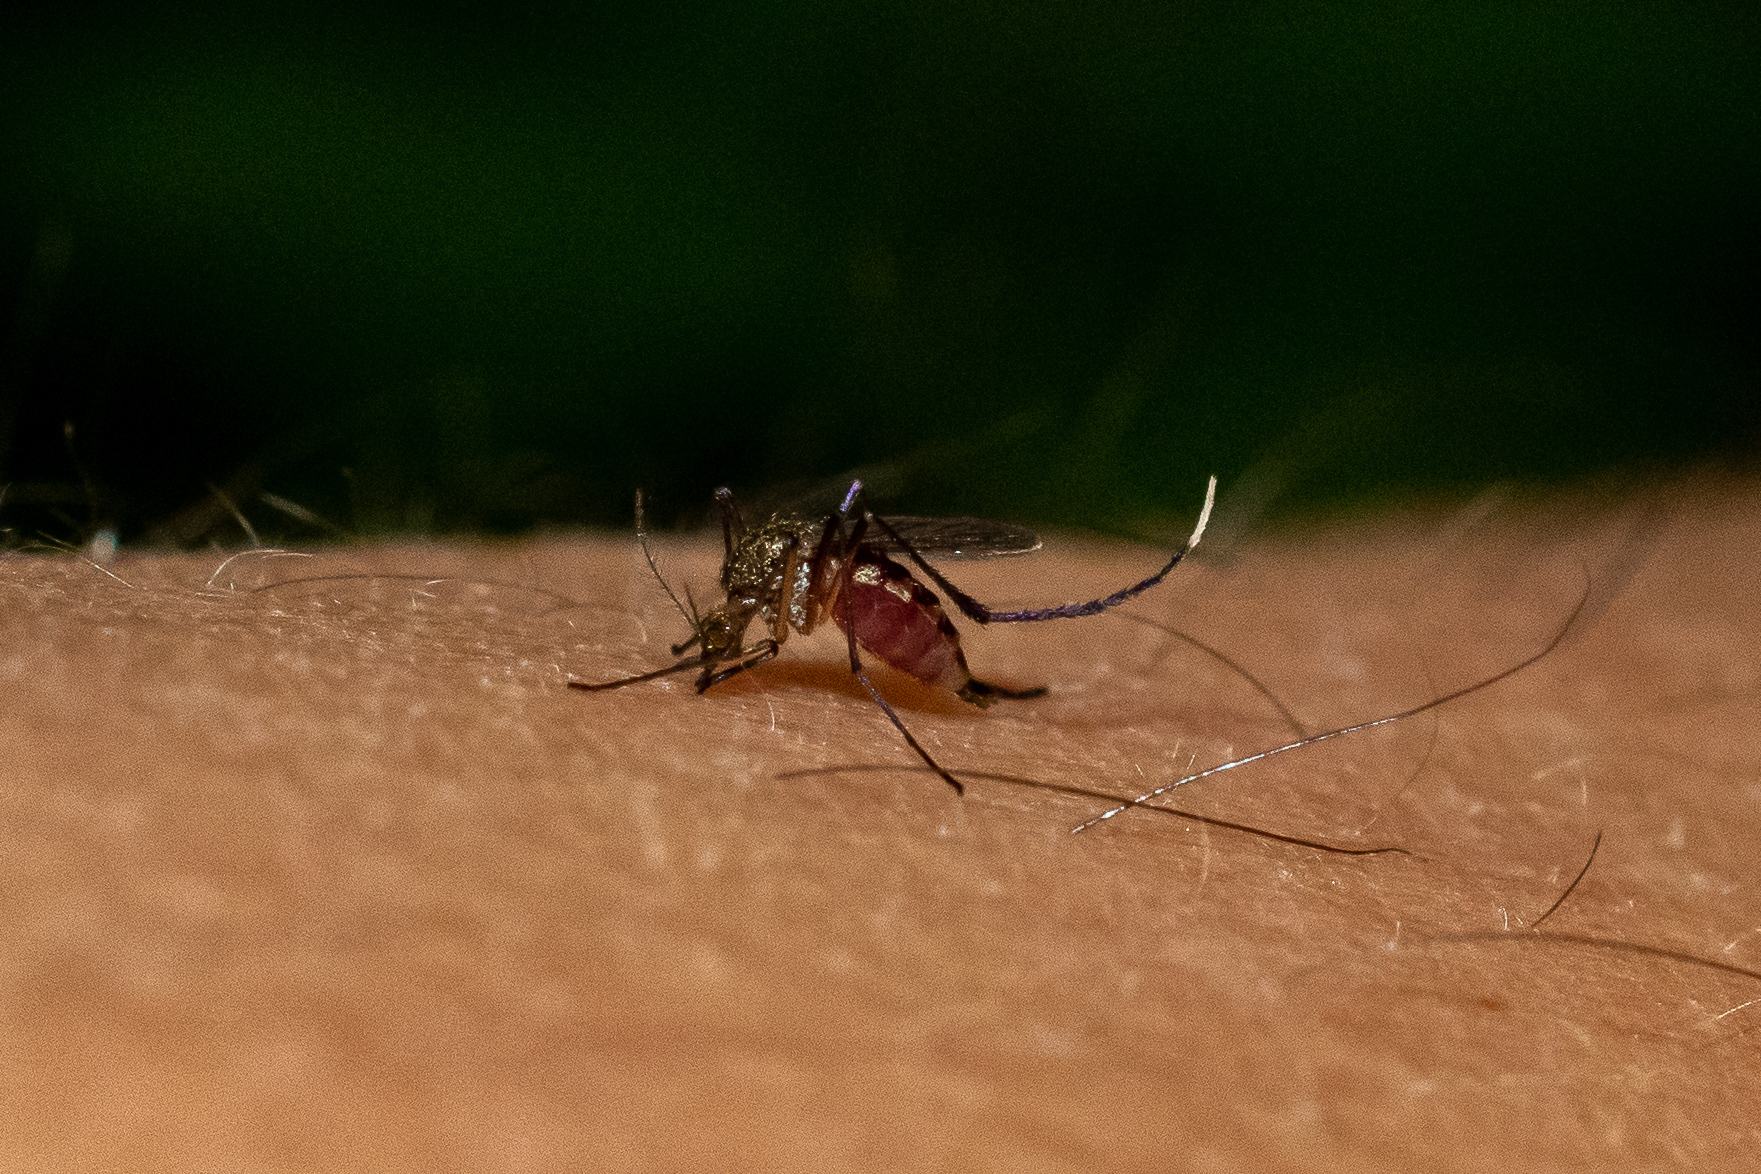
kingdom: Animalia
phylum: Arthropoda
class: Insecta
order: Diptera
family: Culicidae
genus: Psorophora
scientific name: Psorophora ferox
